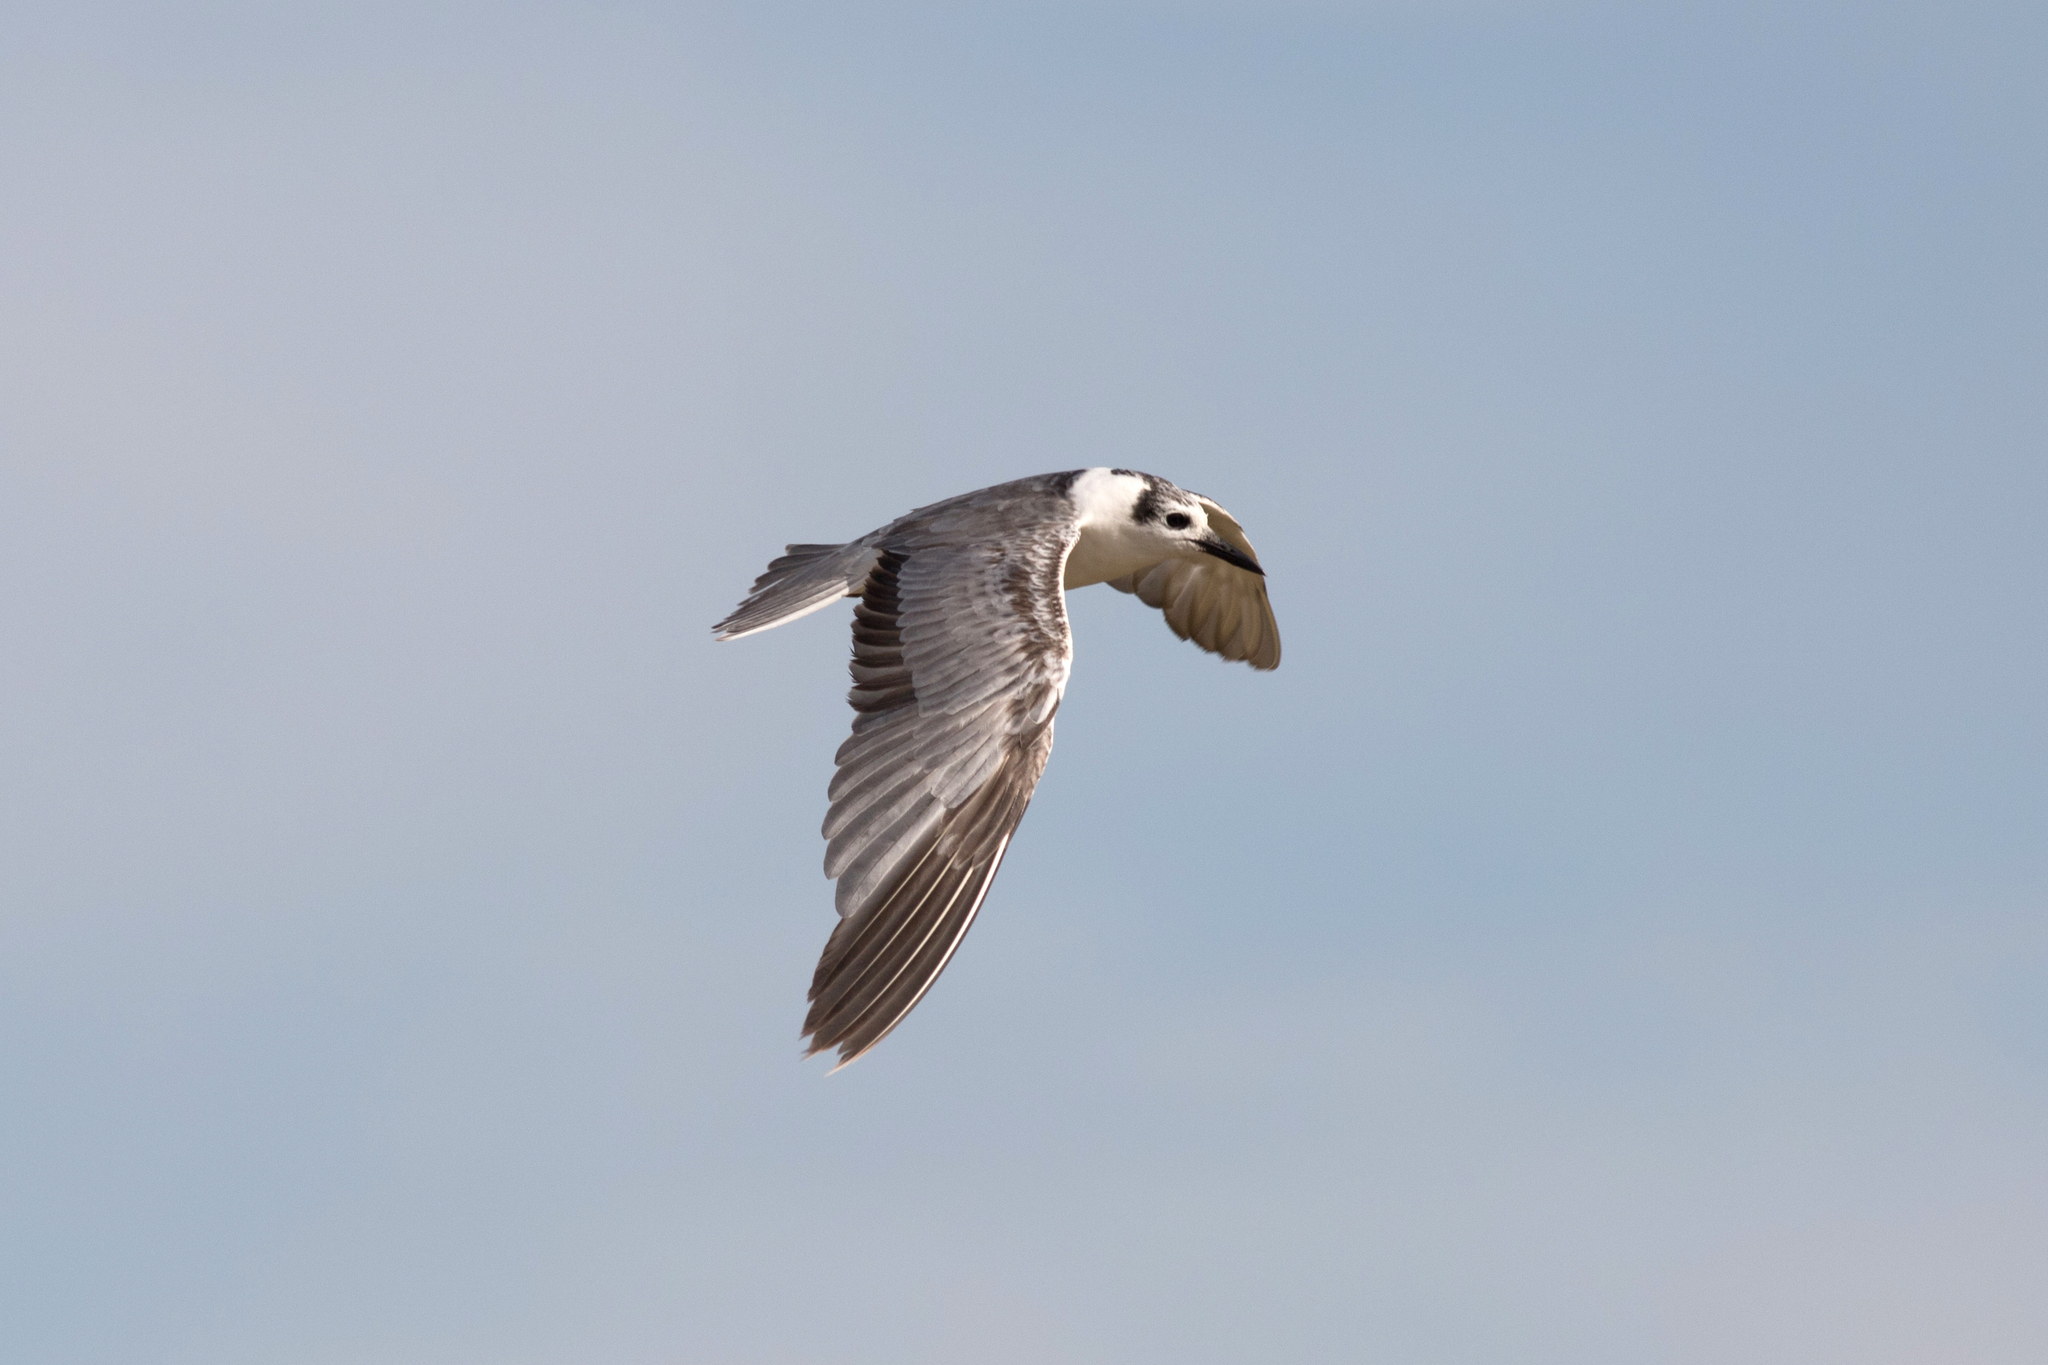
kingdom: Animalia
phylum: Chordata
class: Aves
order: Charadriiformes
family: Laridae
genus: Chlidonias
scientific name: Chlidonias leucopterus
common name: White-winged tern
